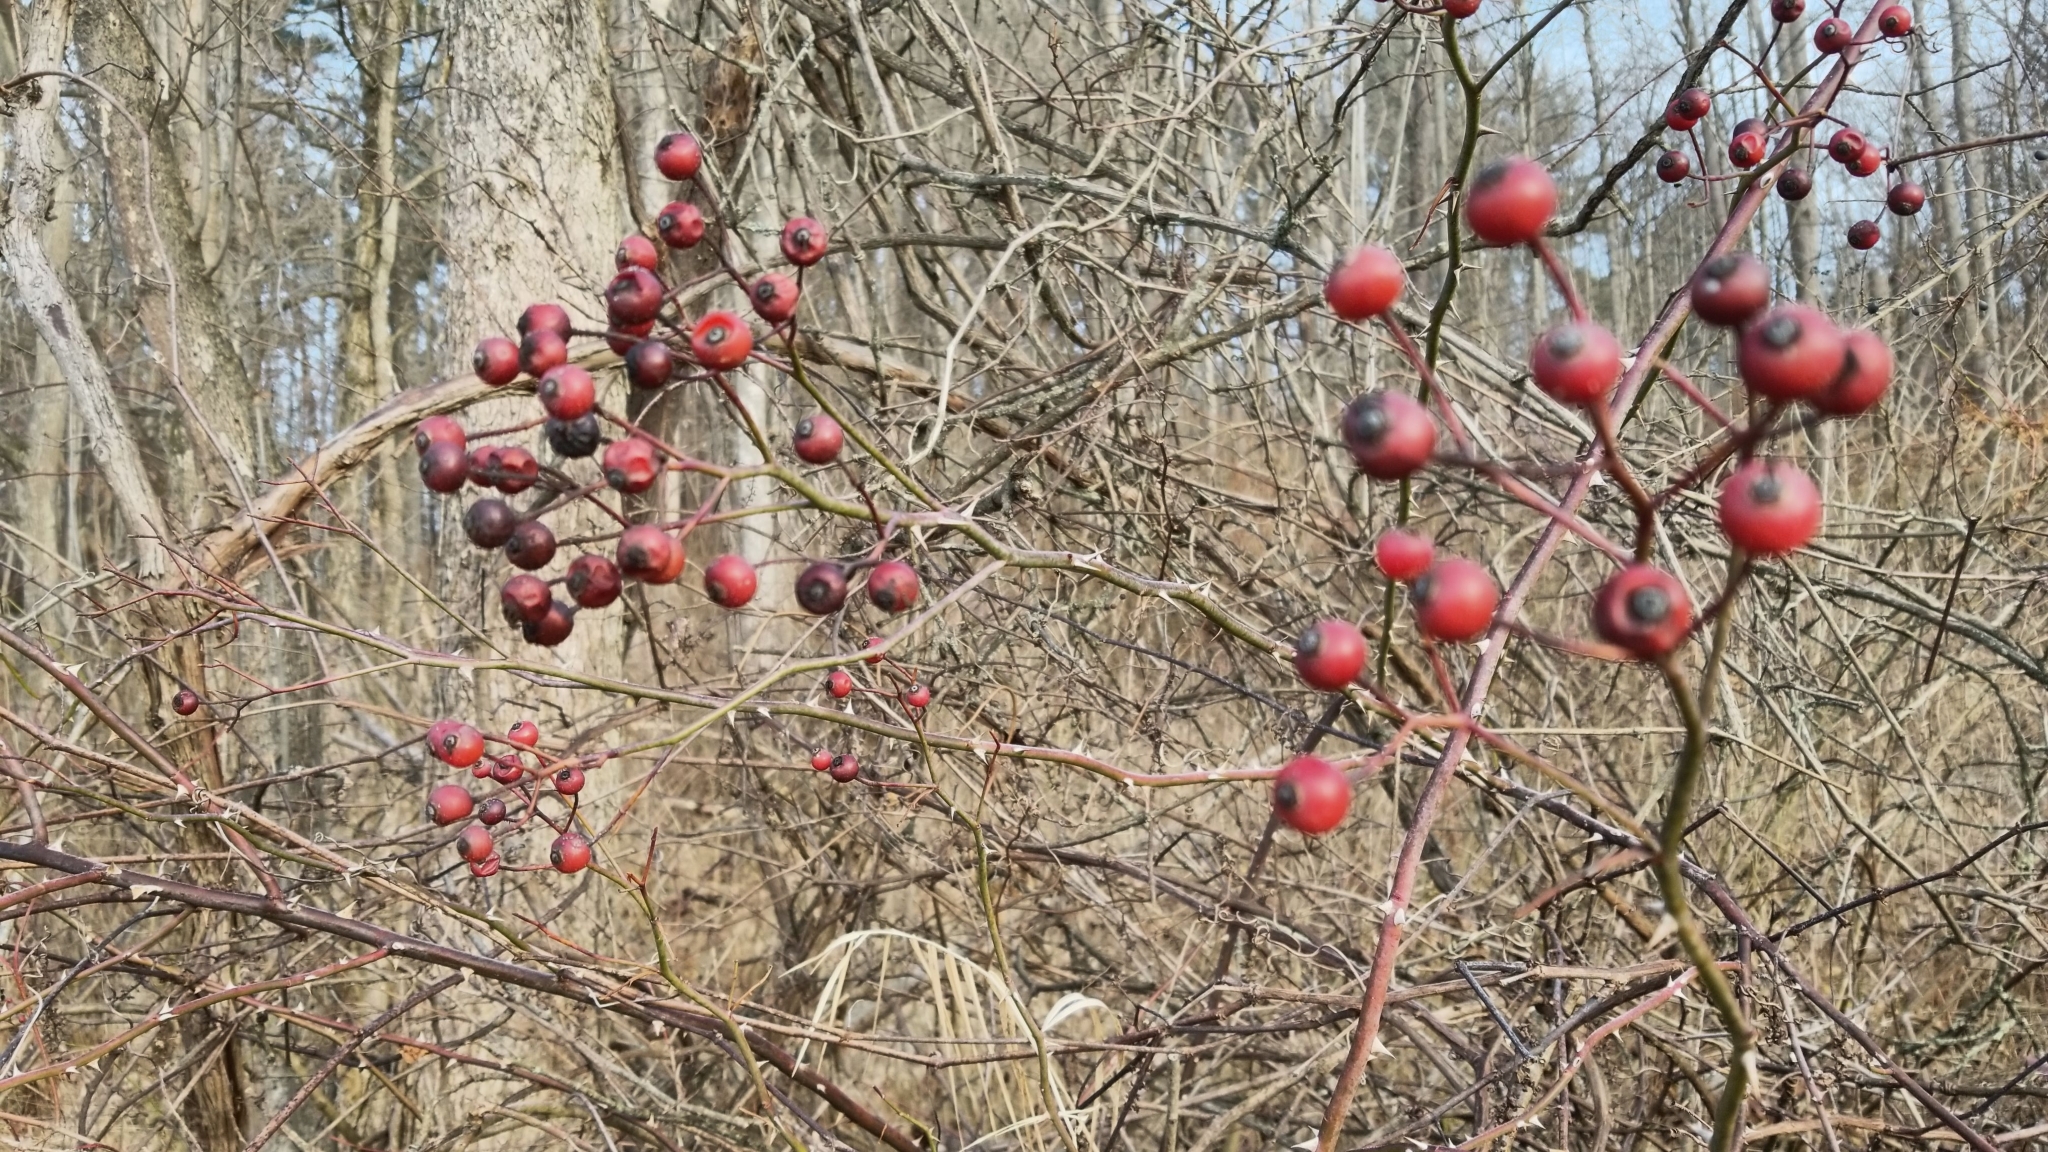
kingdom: Plantae
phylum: Tracheophyta
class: Magnoliopsida
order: Rosales
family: Rosaceae
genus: Rosa
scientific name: Rosa multiflora
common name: Multiflora rose
